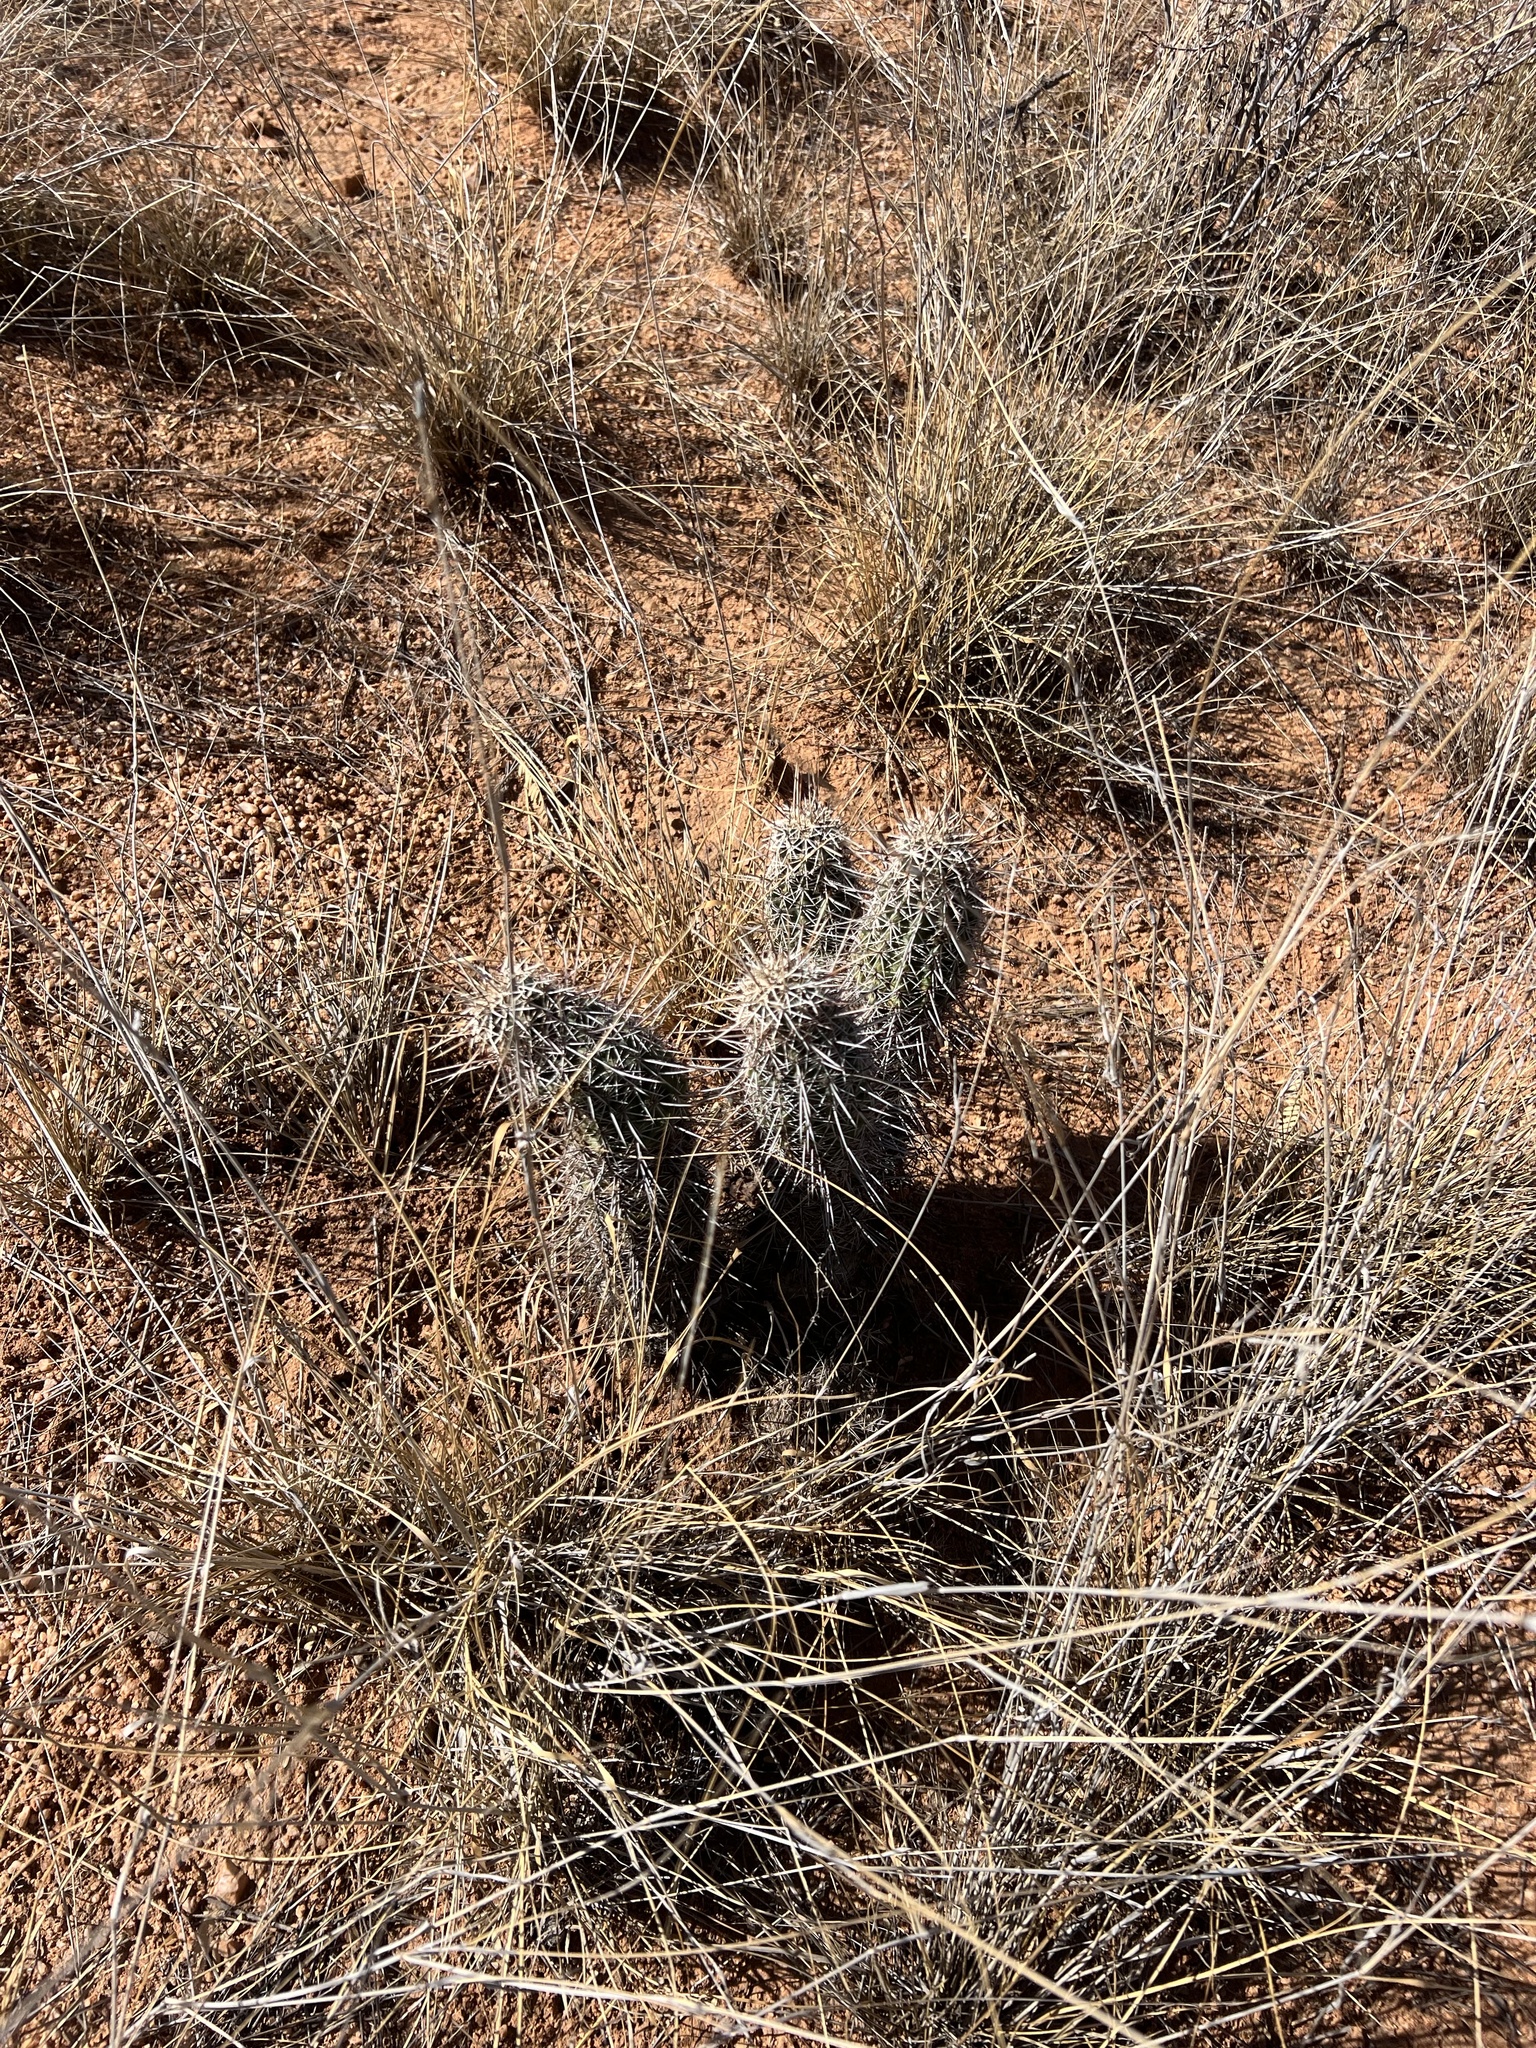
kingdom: Plantae
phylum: Tracheophyta
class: Magnoliopsida
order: Caryophyllales
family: Cactaceae
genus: Echinocereus
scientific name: Echinocereus fasciculatus
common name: Bundle hedgehog
